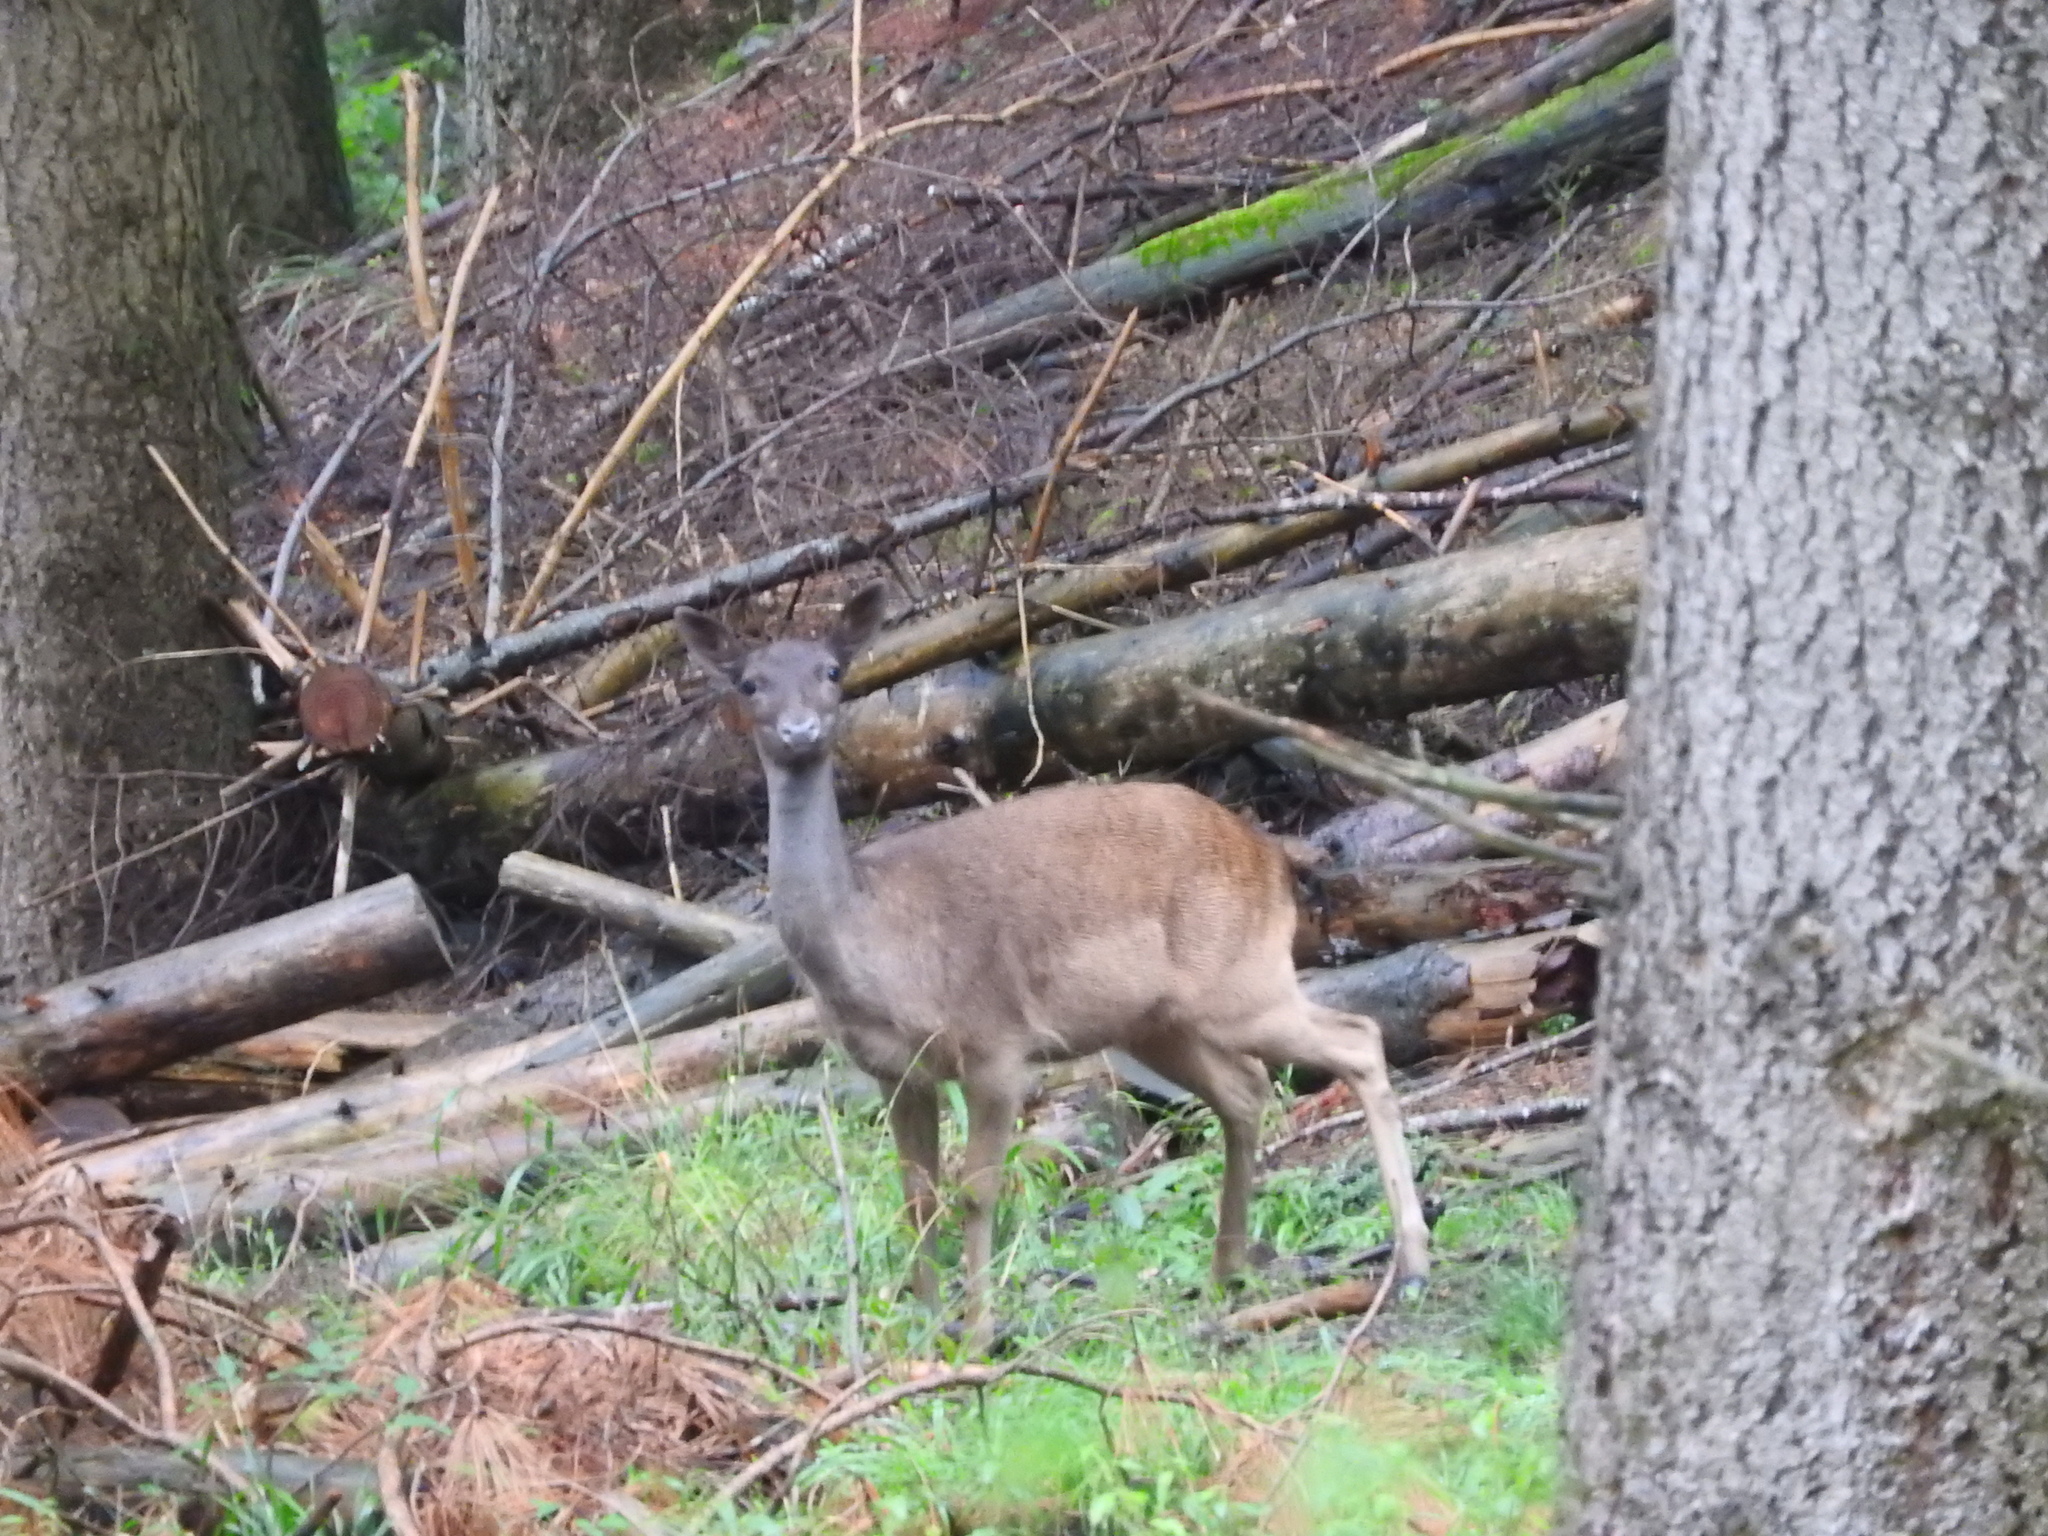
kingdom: Animalia
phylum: Chordata
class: Mammalia
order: Artiodactyla
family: Cervidae
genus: Dama
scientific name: Dama dama
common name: Fallow deer
